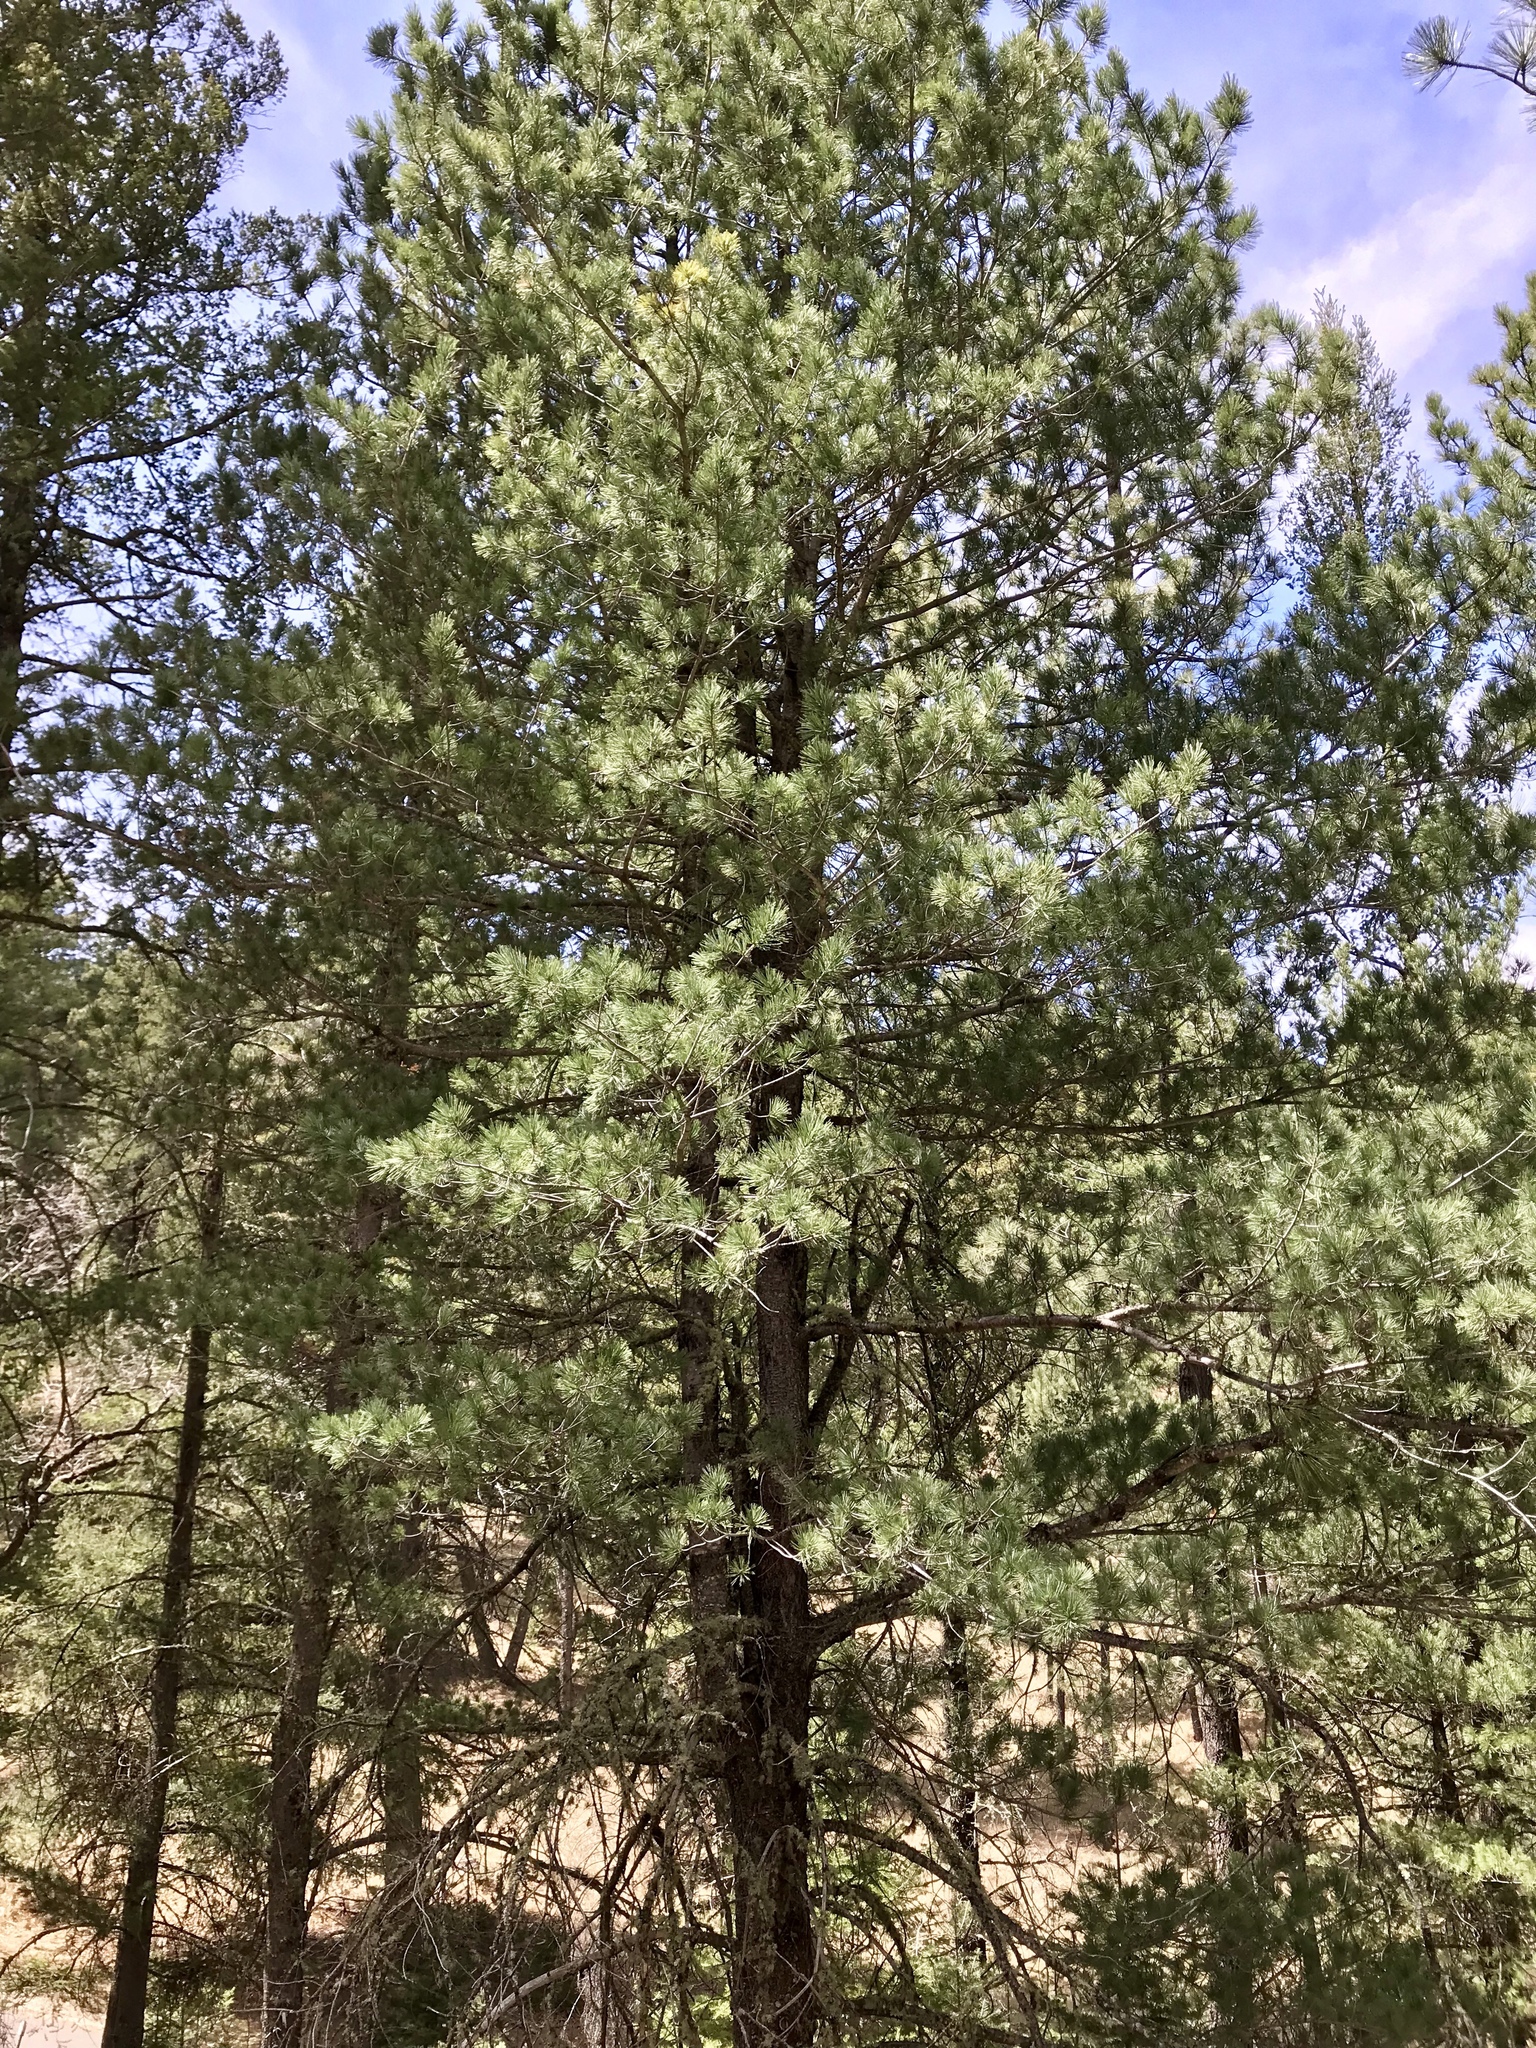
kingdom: Plantae
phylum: Tracheophyta
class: Pinopsida
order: Pinales
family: Pinaceae
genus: Pinus
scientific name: Pinus strobiformis
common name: Southwestern white pine
